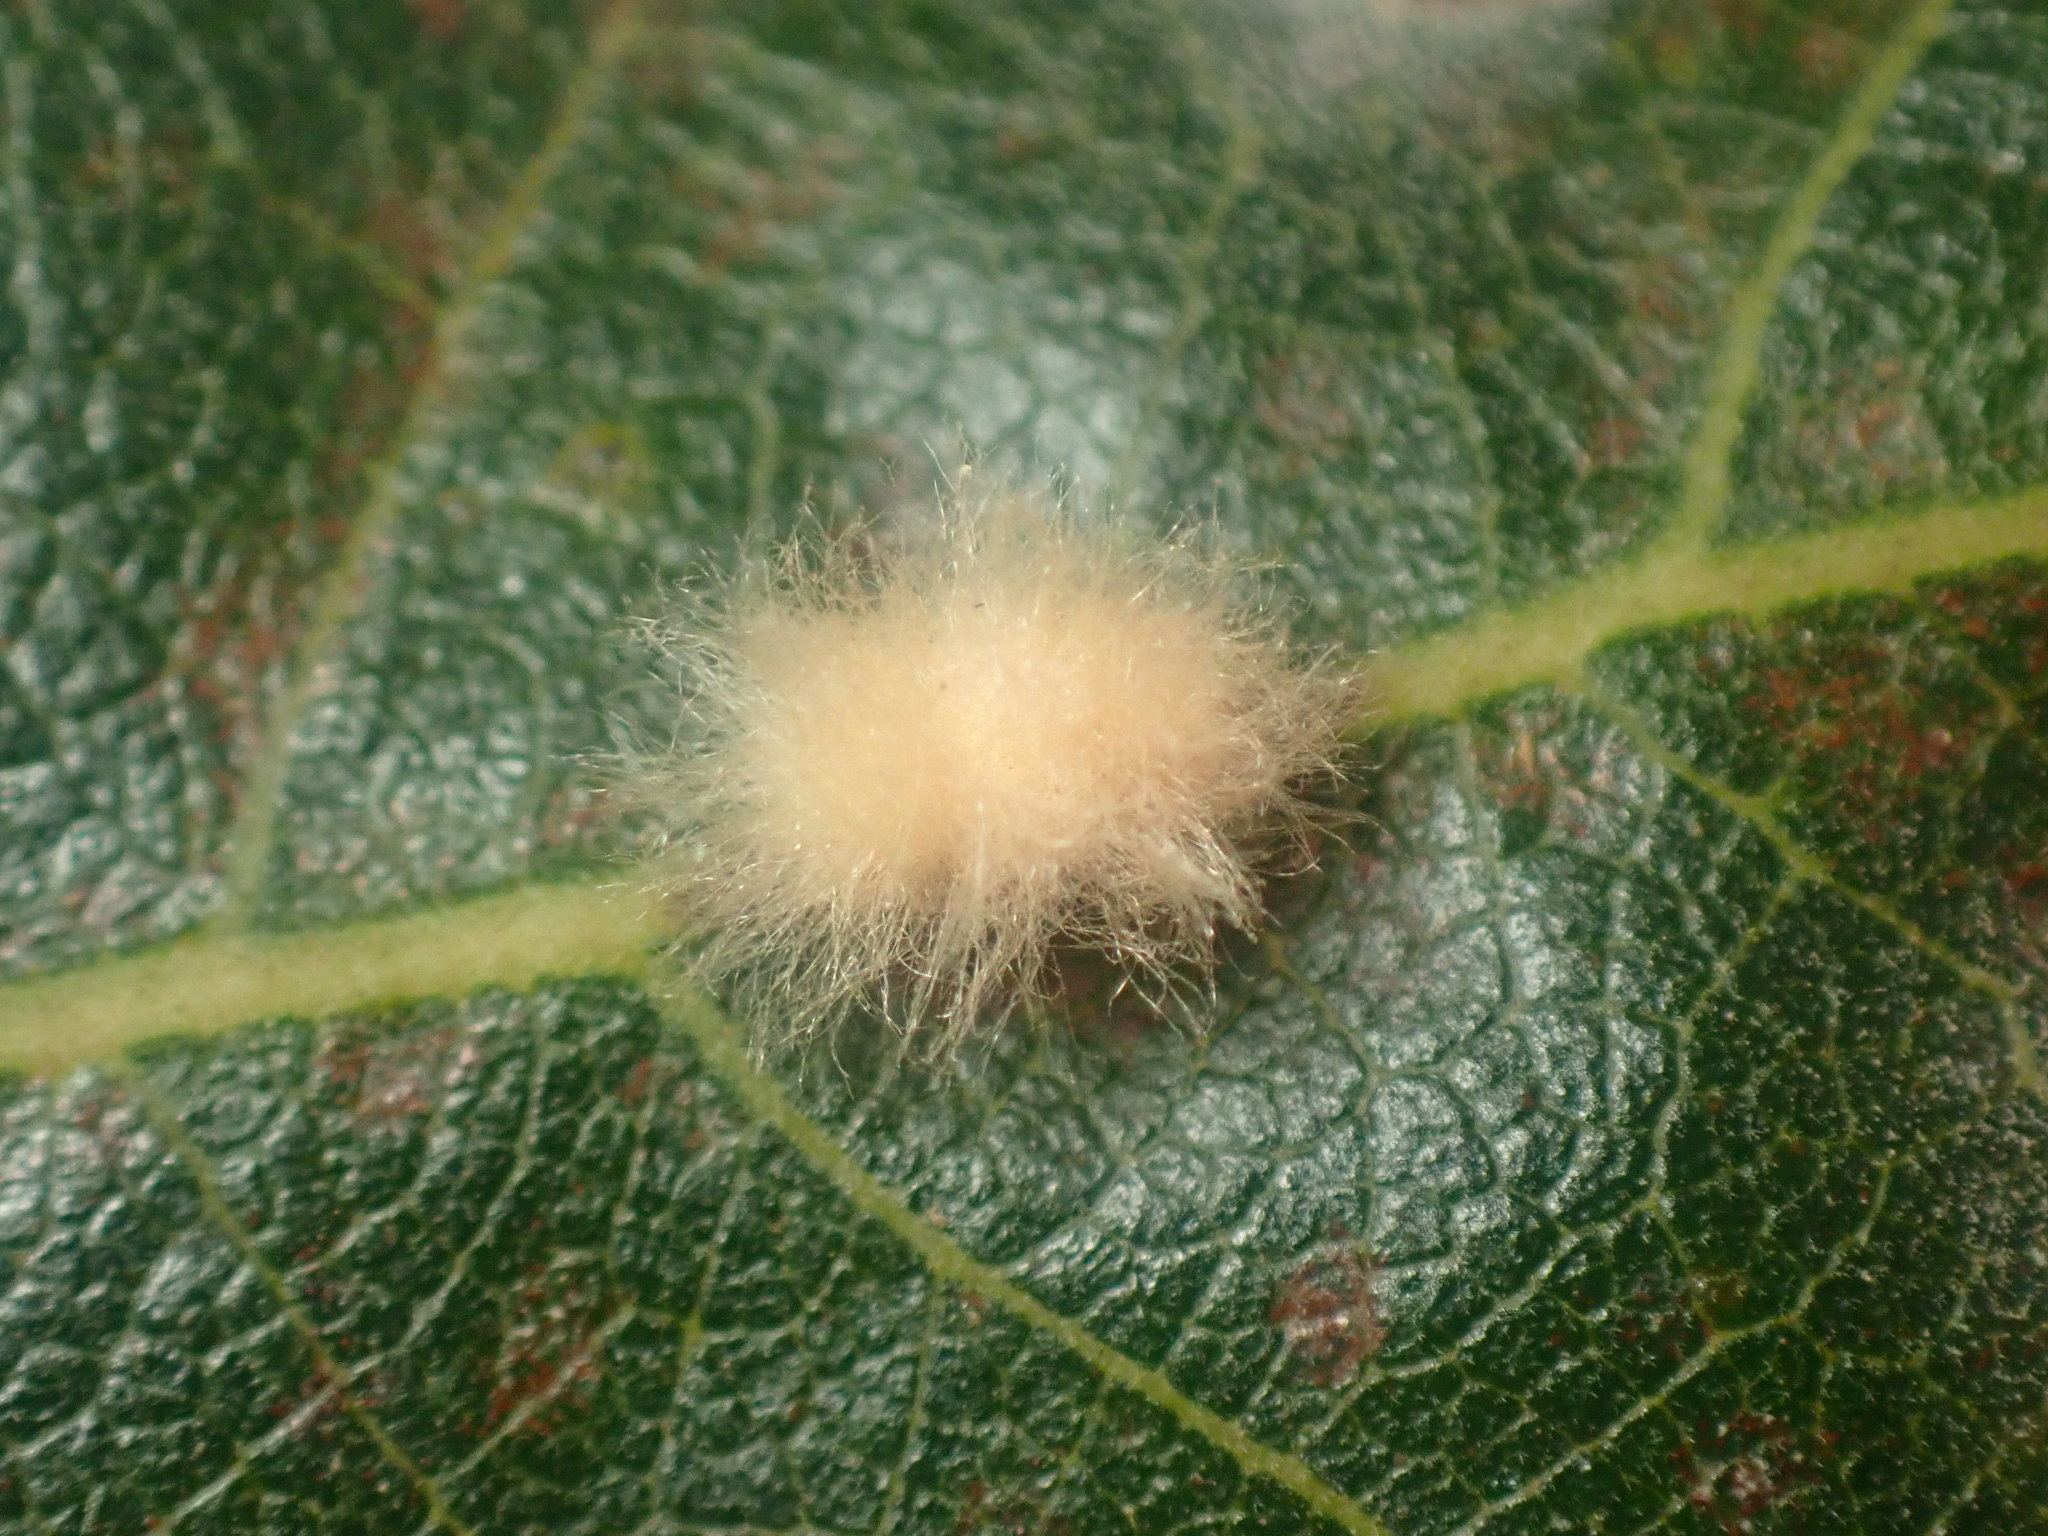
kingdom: Animalia
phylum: Arthropoda
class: Insecta
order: Hymenoptera
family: Cynipidae
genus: Andricus
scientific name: Andricus Druon fullawayi
